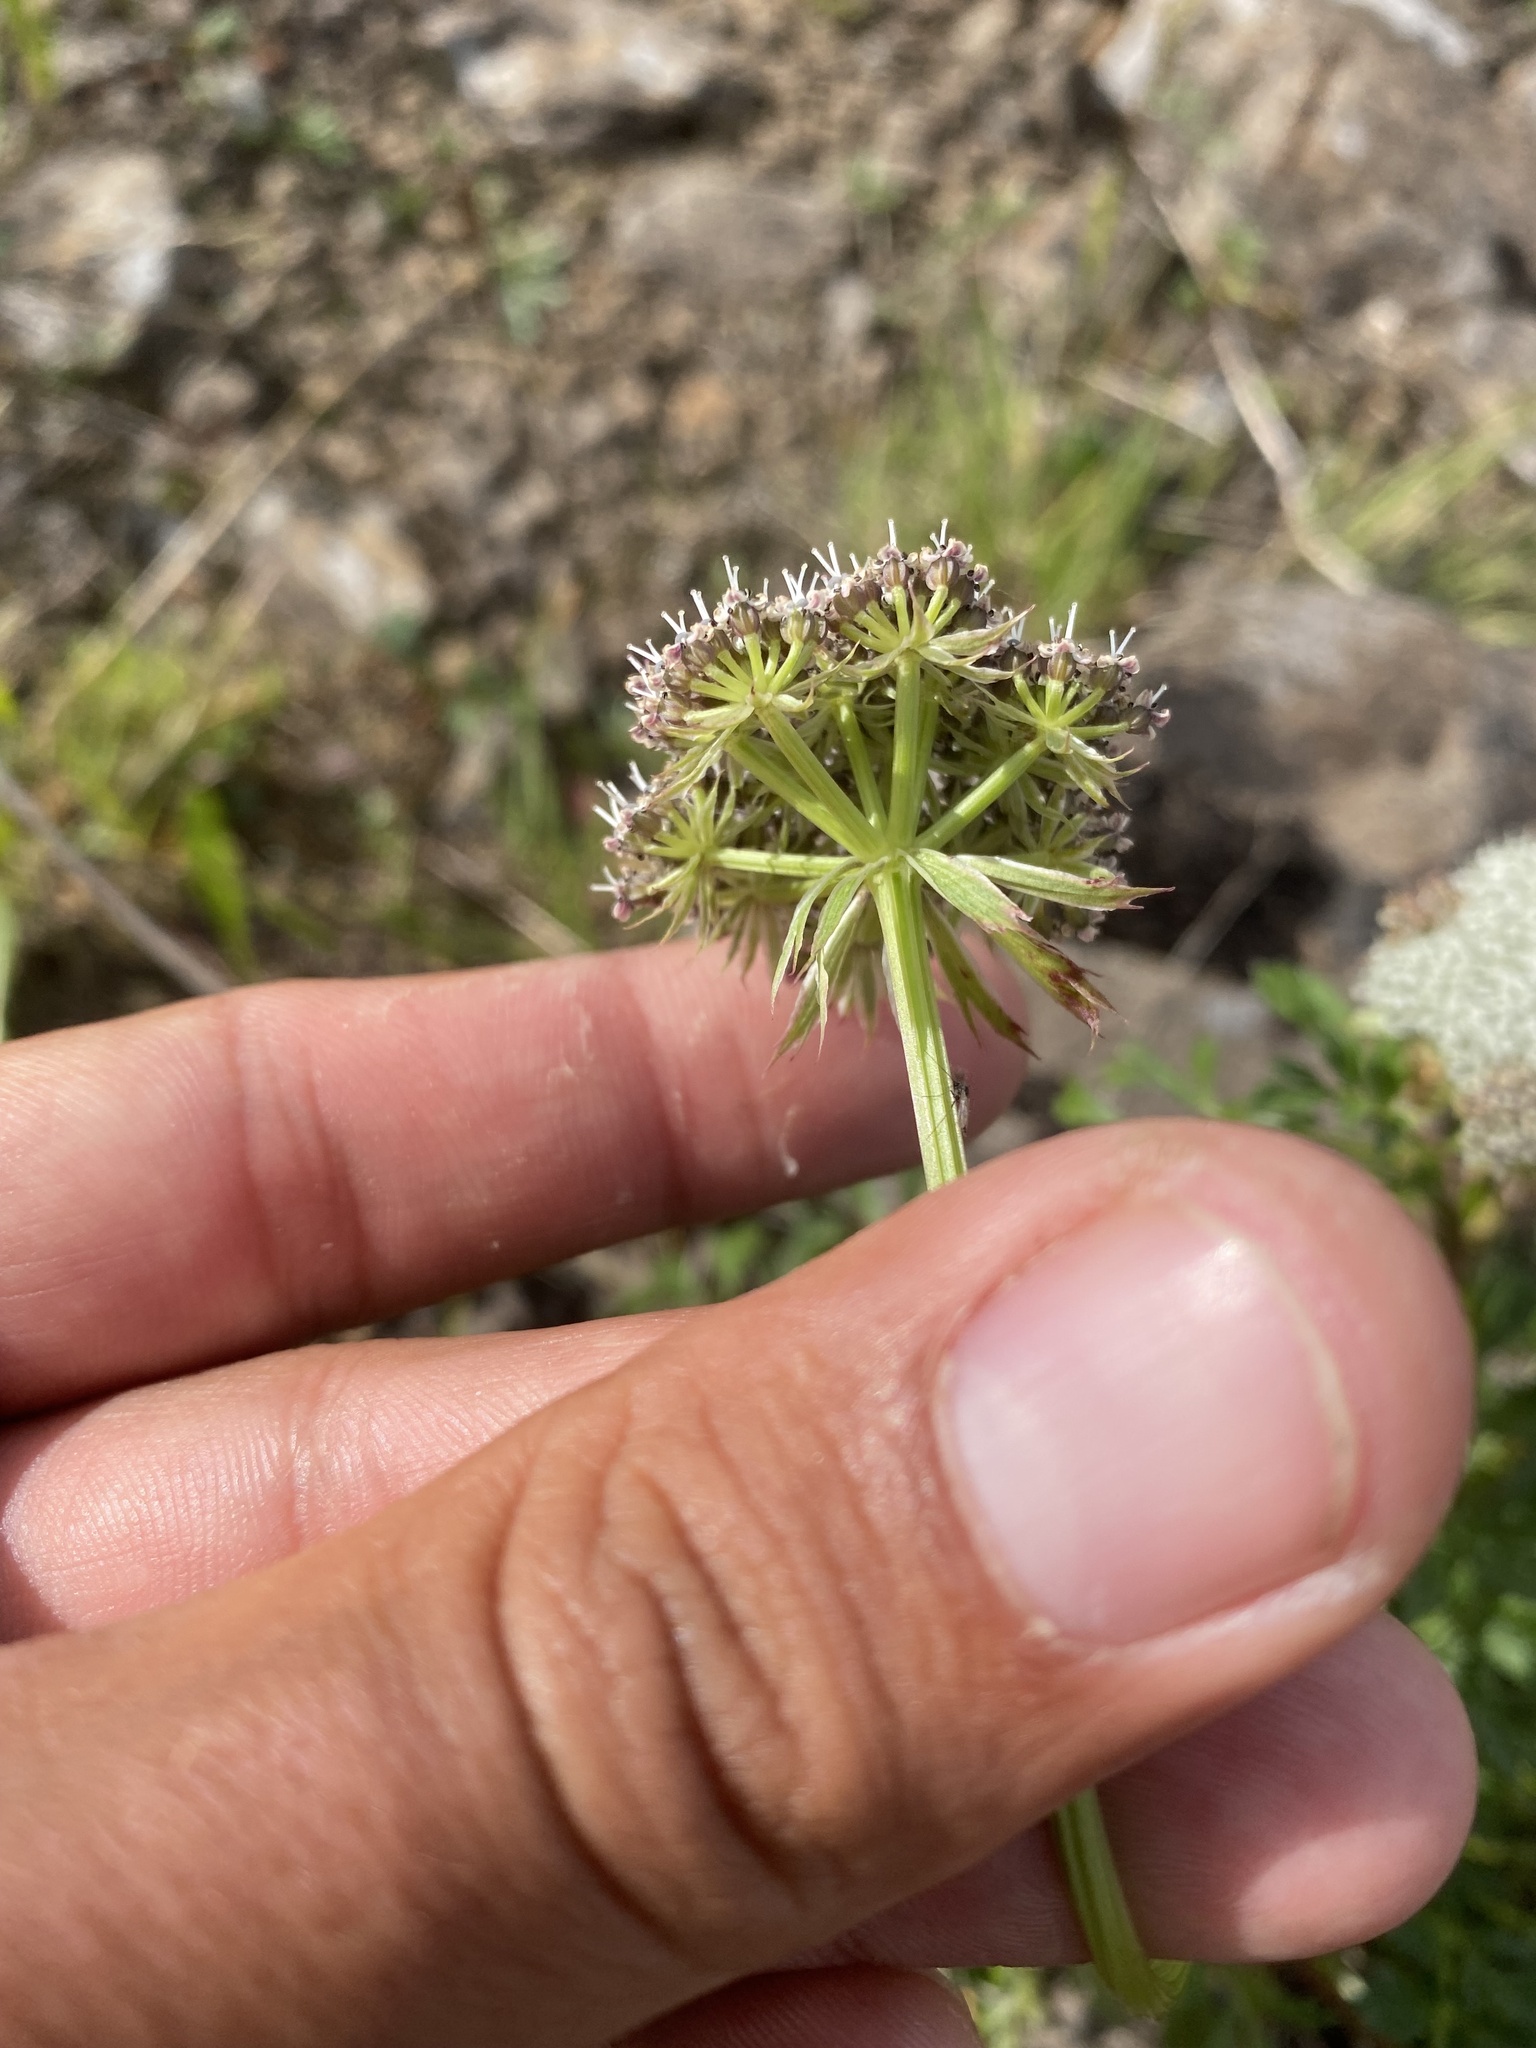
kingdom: Plantae
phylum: Tracheophyta
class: Magnoliopsida
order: Apiales
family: Apiaceae
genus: Pachypleurum
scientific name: Pachypleurum mutellinoides
